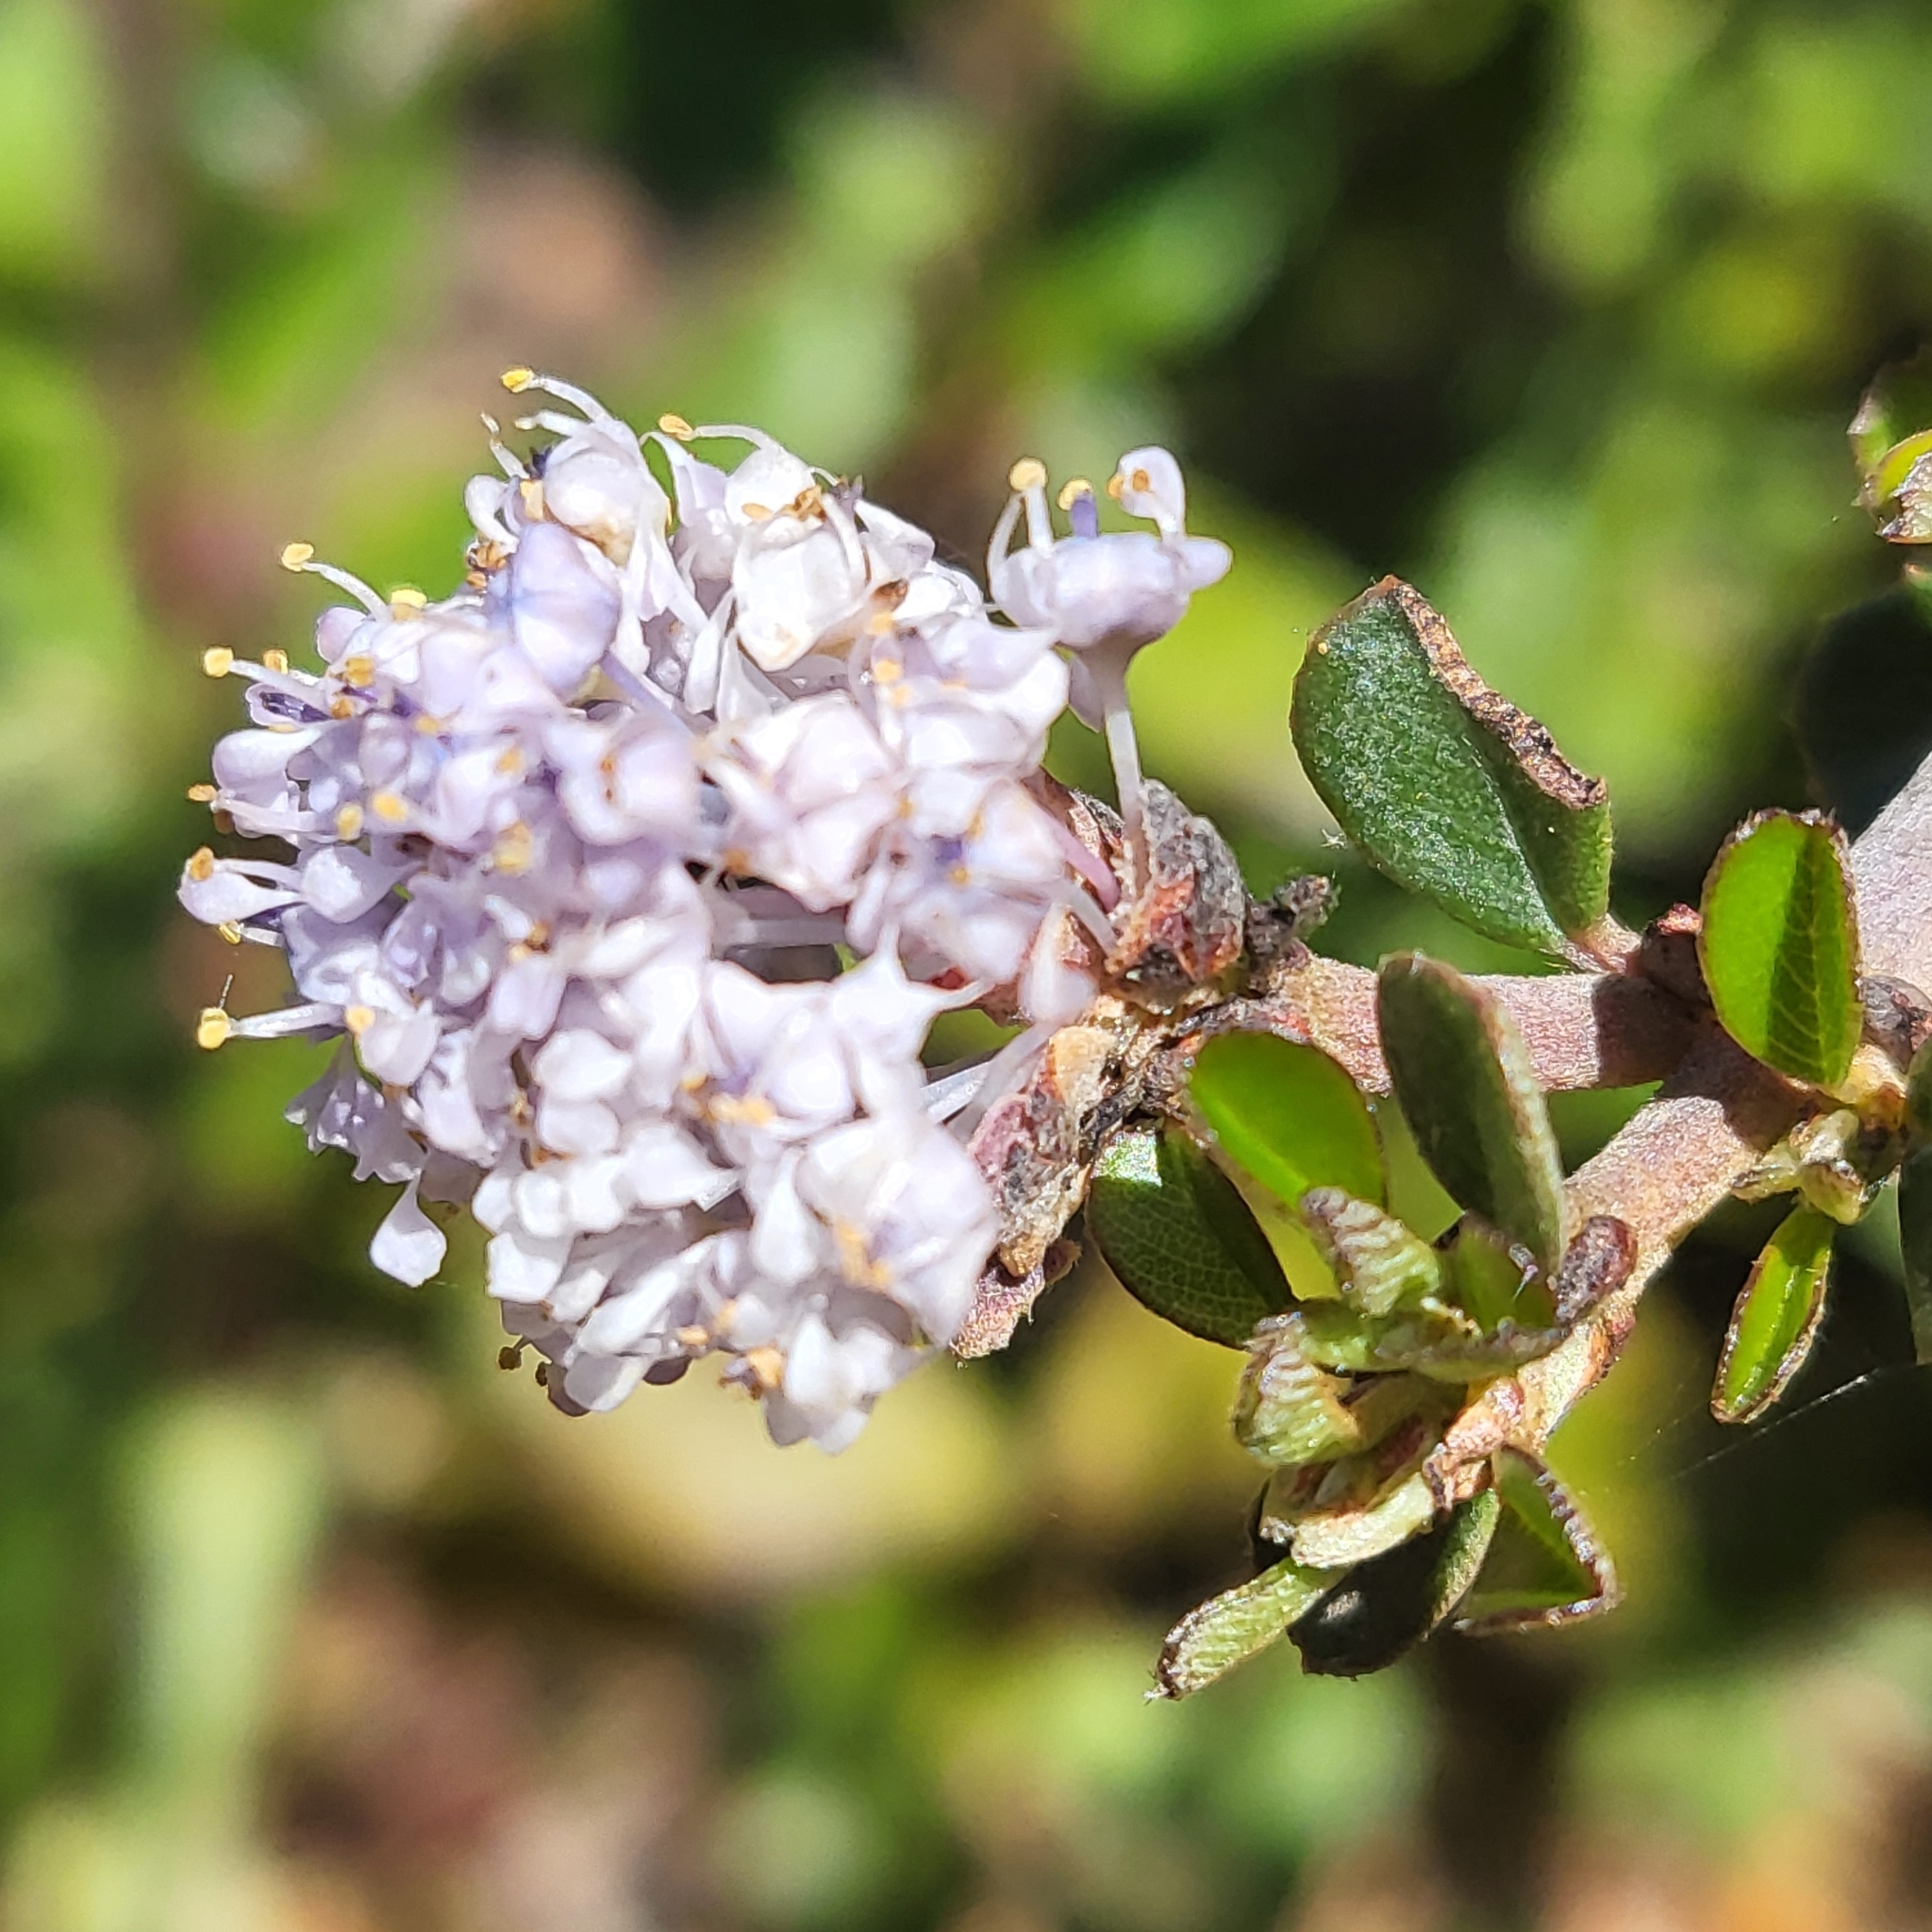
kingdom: Plantae
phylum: Tracheophyta
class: Magnoliopsida
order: Rosales
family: Rhamnaceae
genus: Ceanothus
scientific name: Ceanothus cuneatus
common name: Cuneate ceanothus
